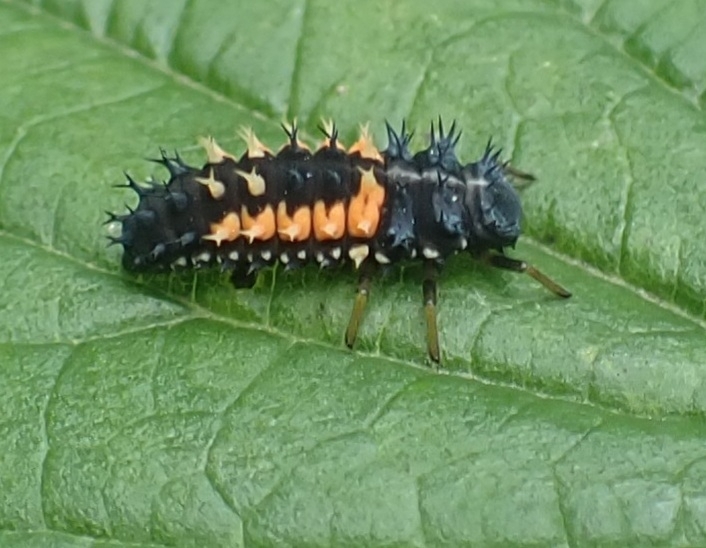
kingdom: Animalia
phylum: Arthropoda
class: Insecta
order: Coleoptera
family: Coccinellidae
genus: Harmonia
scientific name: Harmonia axyridis
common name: Harlequin ladybird
